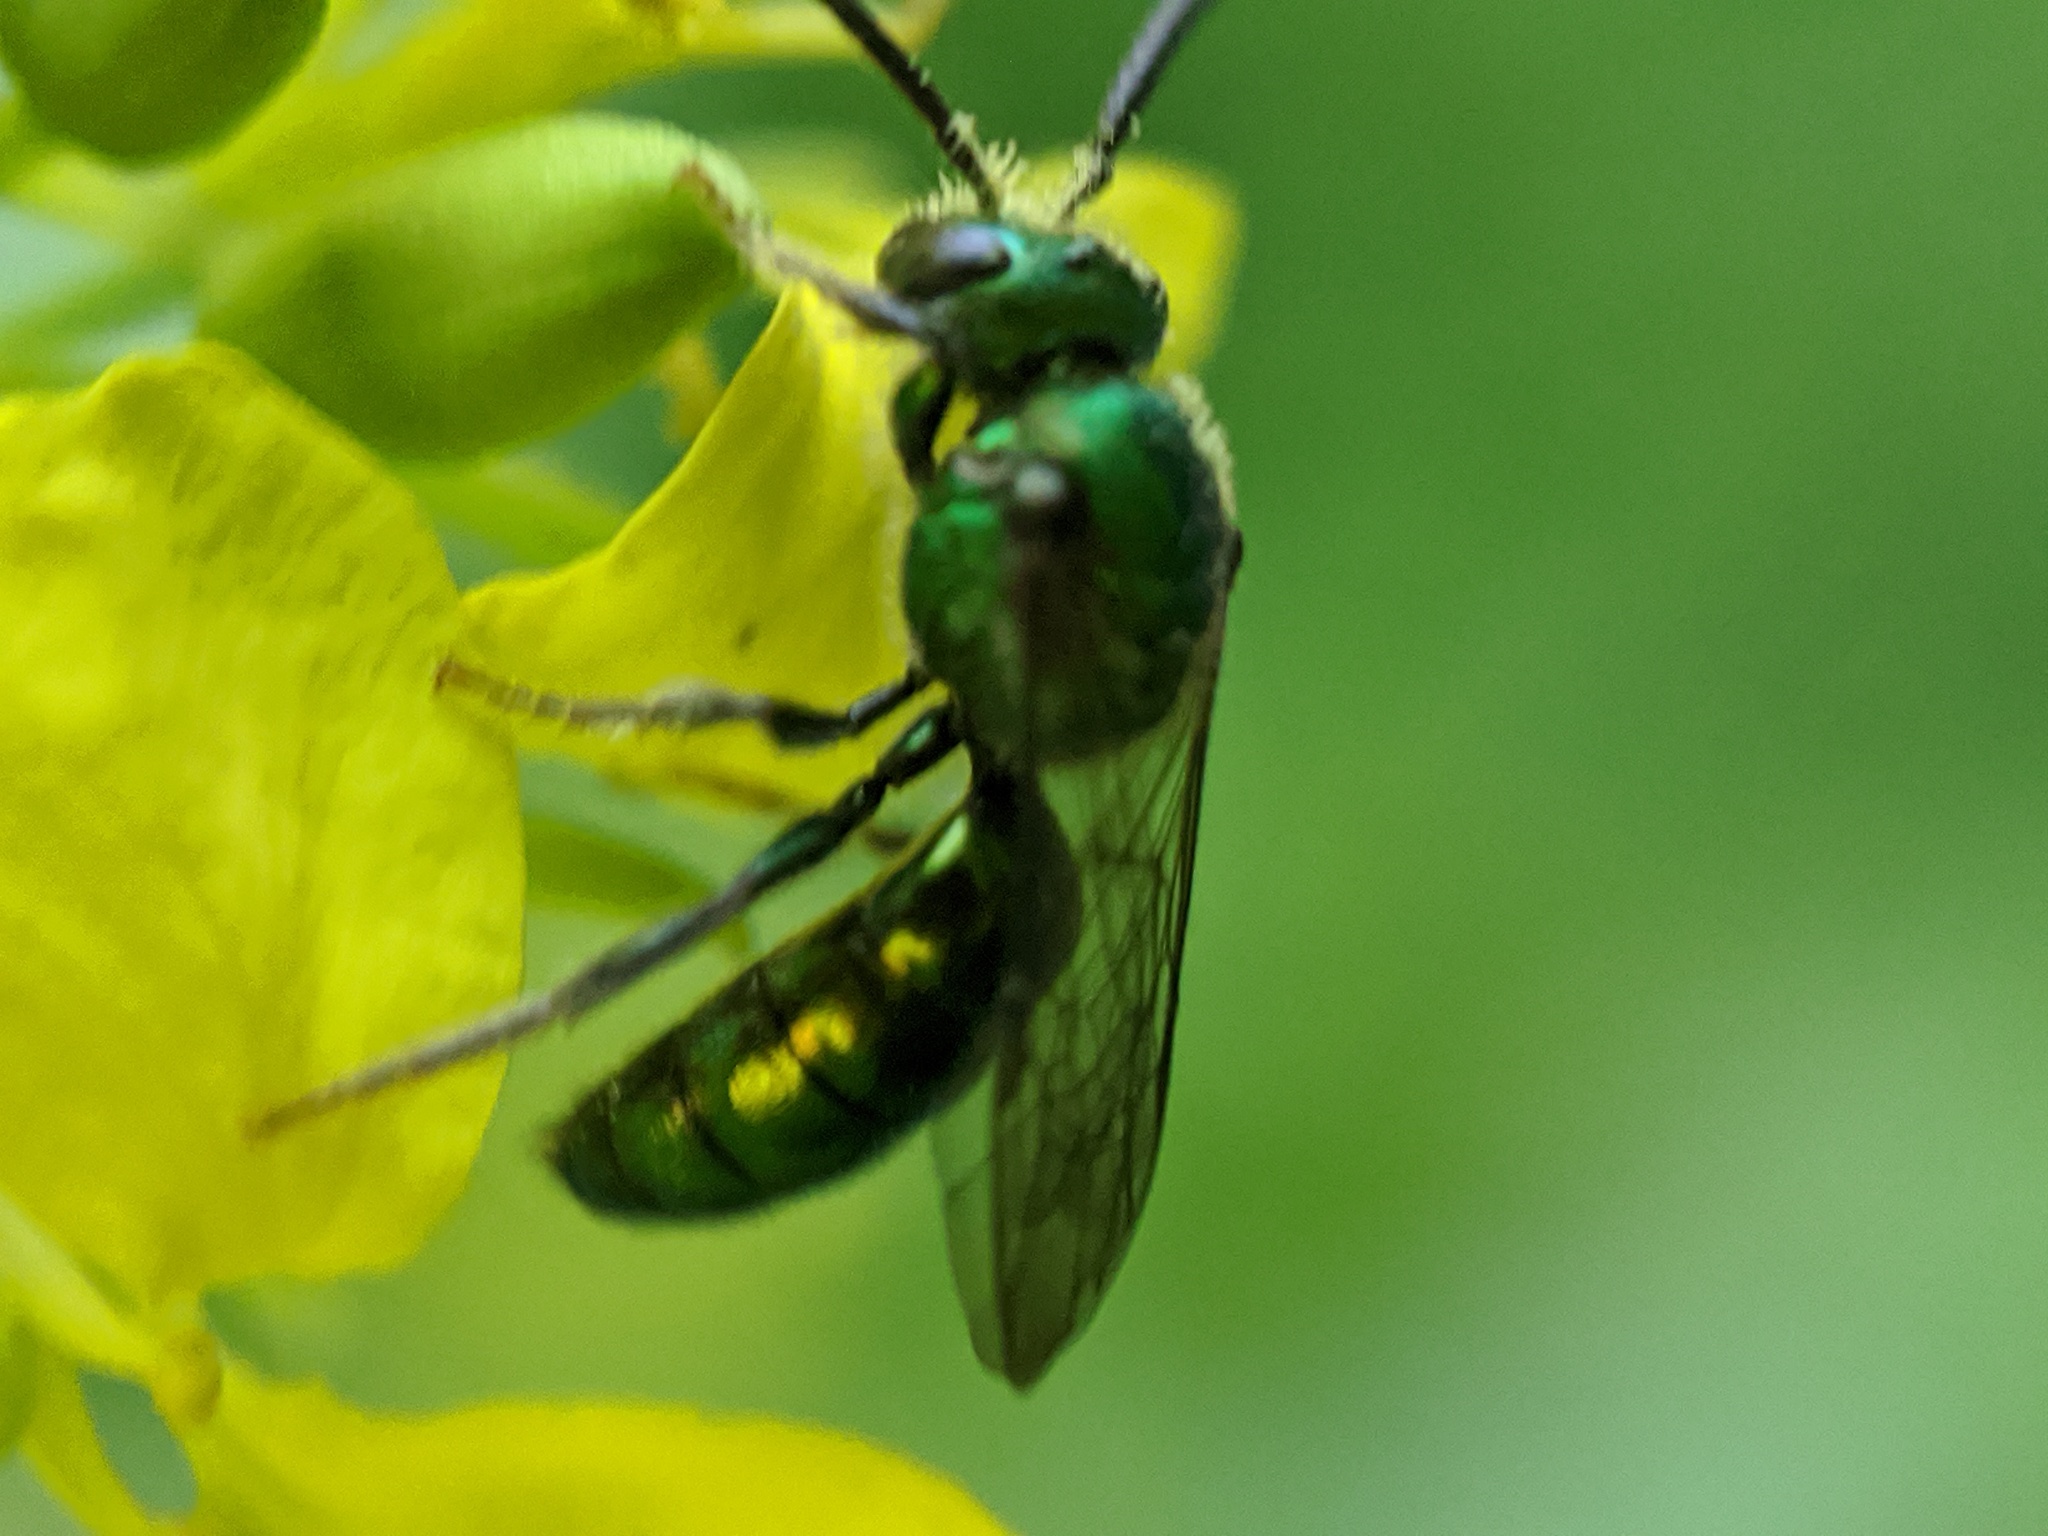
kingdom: Animalia
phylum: Arthropoda
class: Insecta
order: Hymenoptera
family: Halictidae
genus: Augochlora
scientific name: Augochlora pura
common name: Pure green sweat bee
